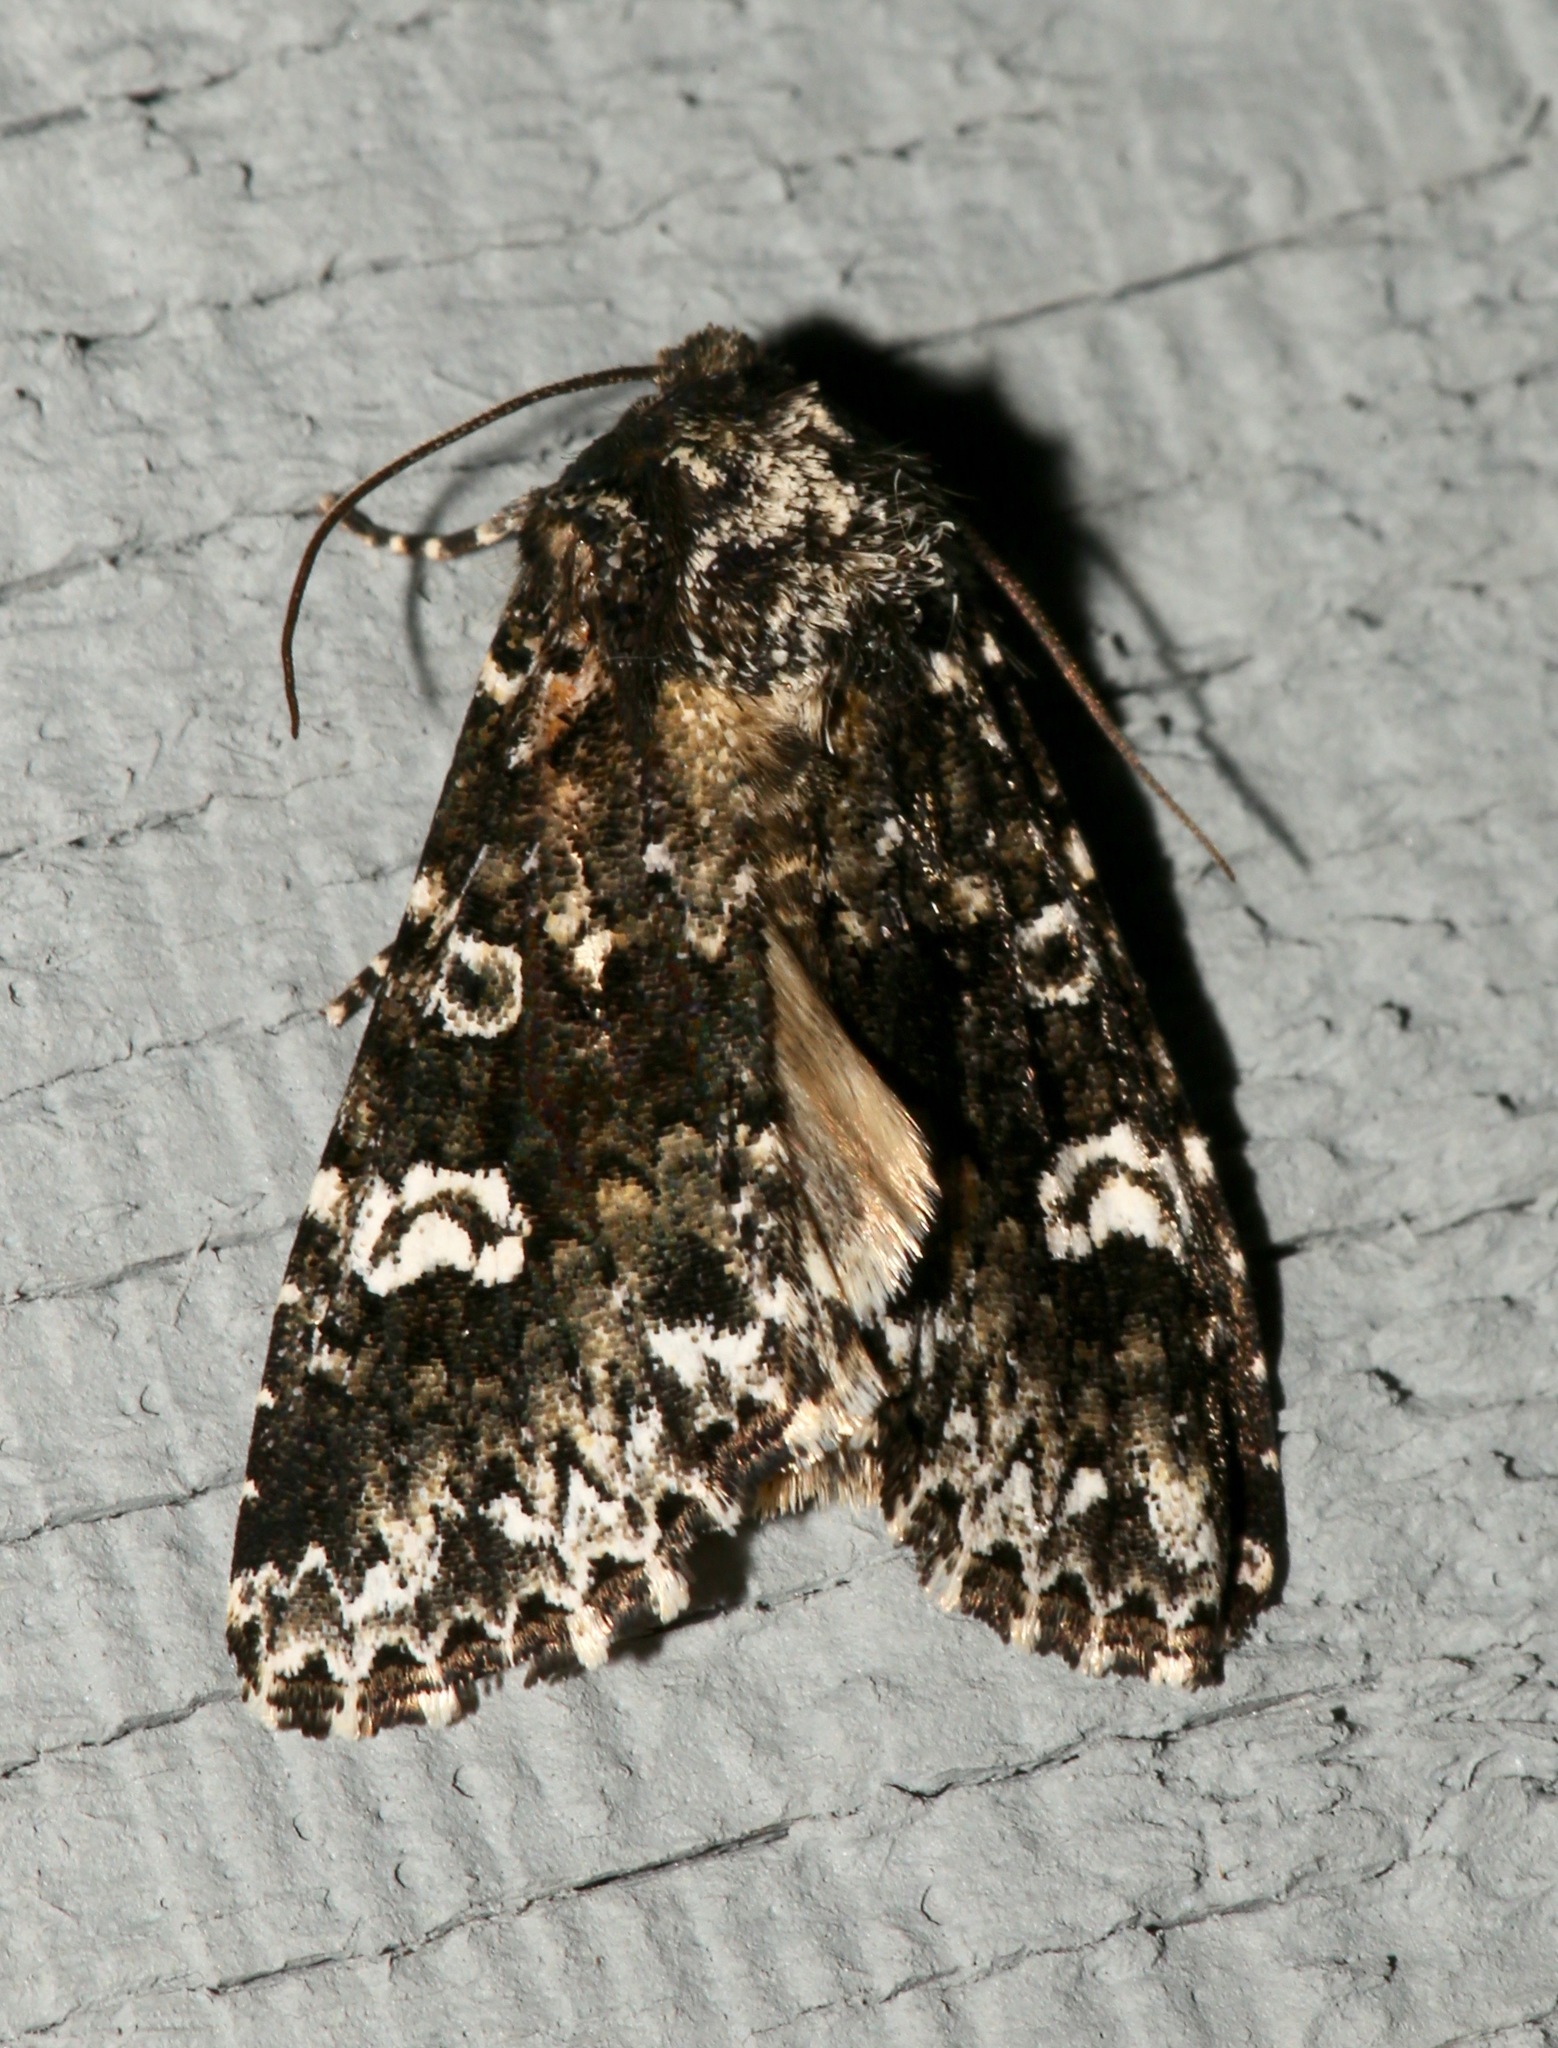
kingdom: Animalia
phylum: Arthropoda
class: Insecta
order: Lepidoptera
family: Noctuidae
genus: Melanchra
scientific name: Melanchra adjuncta
